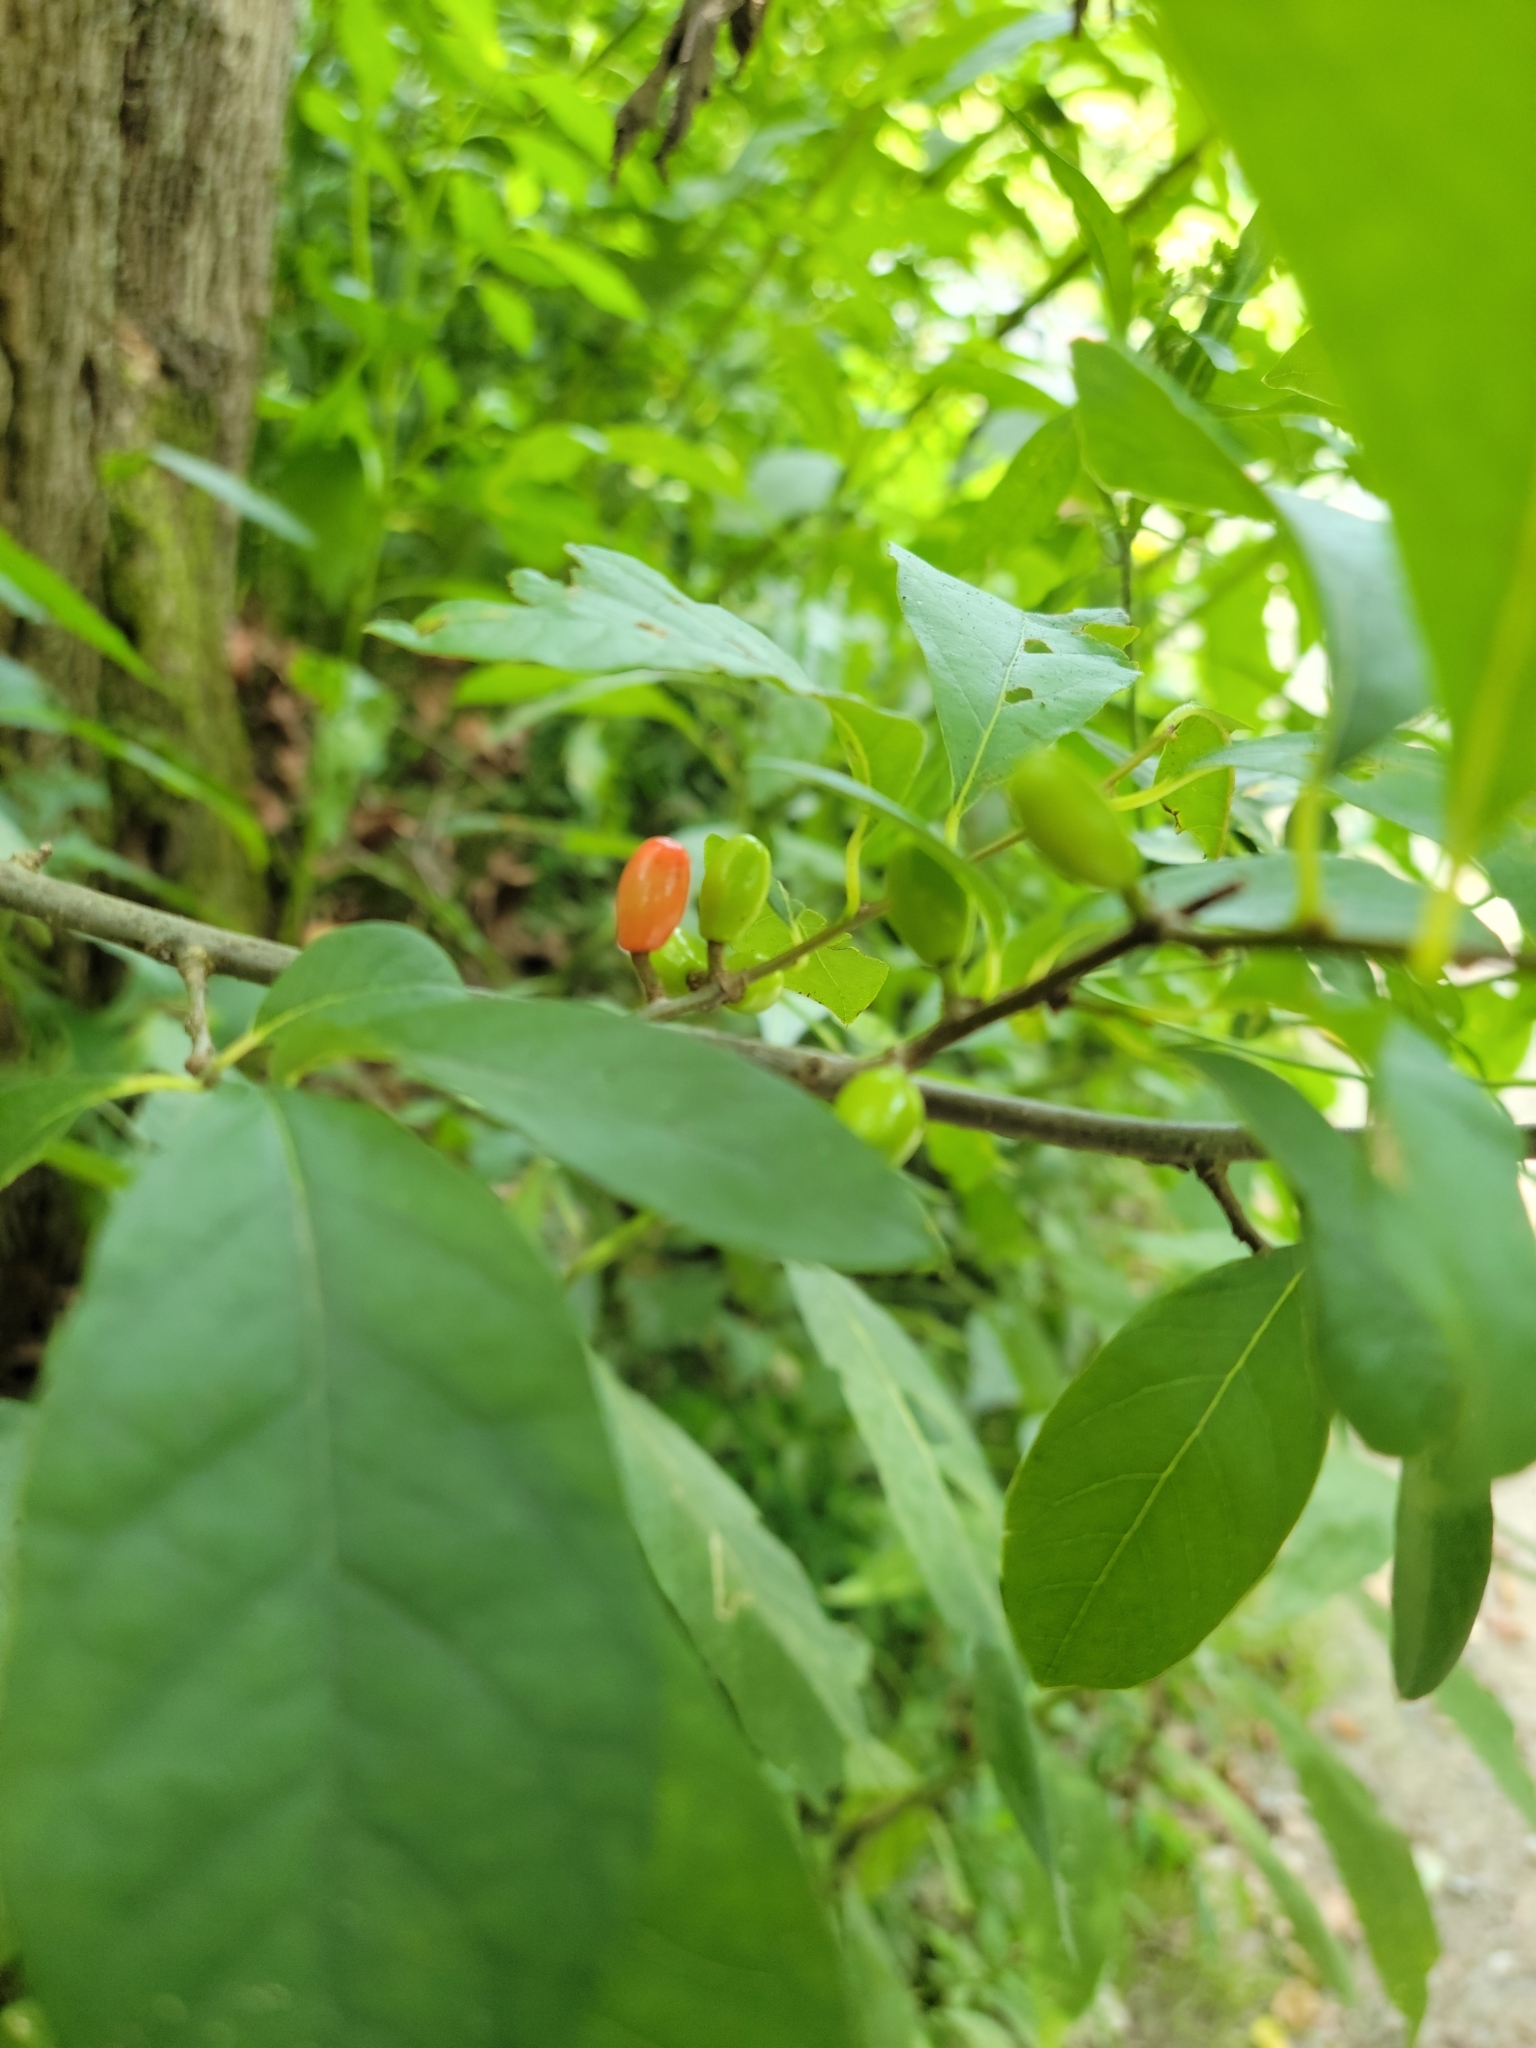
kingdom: Plantae
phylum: Tracheophyta
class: Magnoliopsida
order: Laurales
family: Lauraceae
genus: Lindera
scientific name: Lindera benzoin
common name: Spicebush
